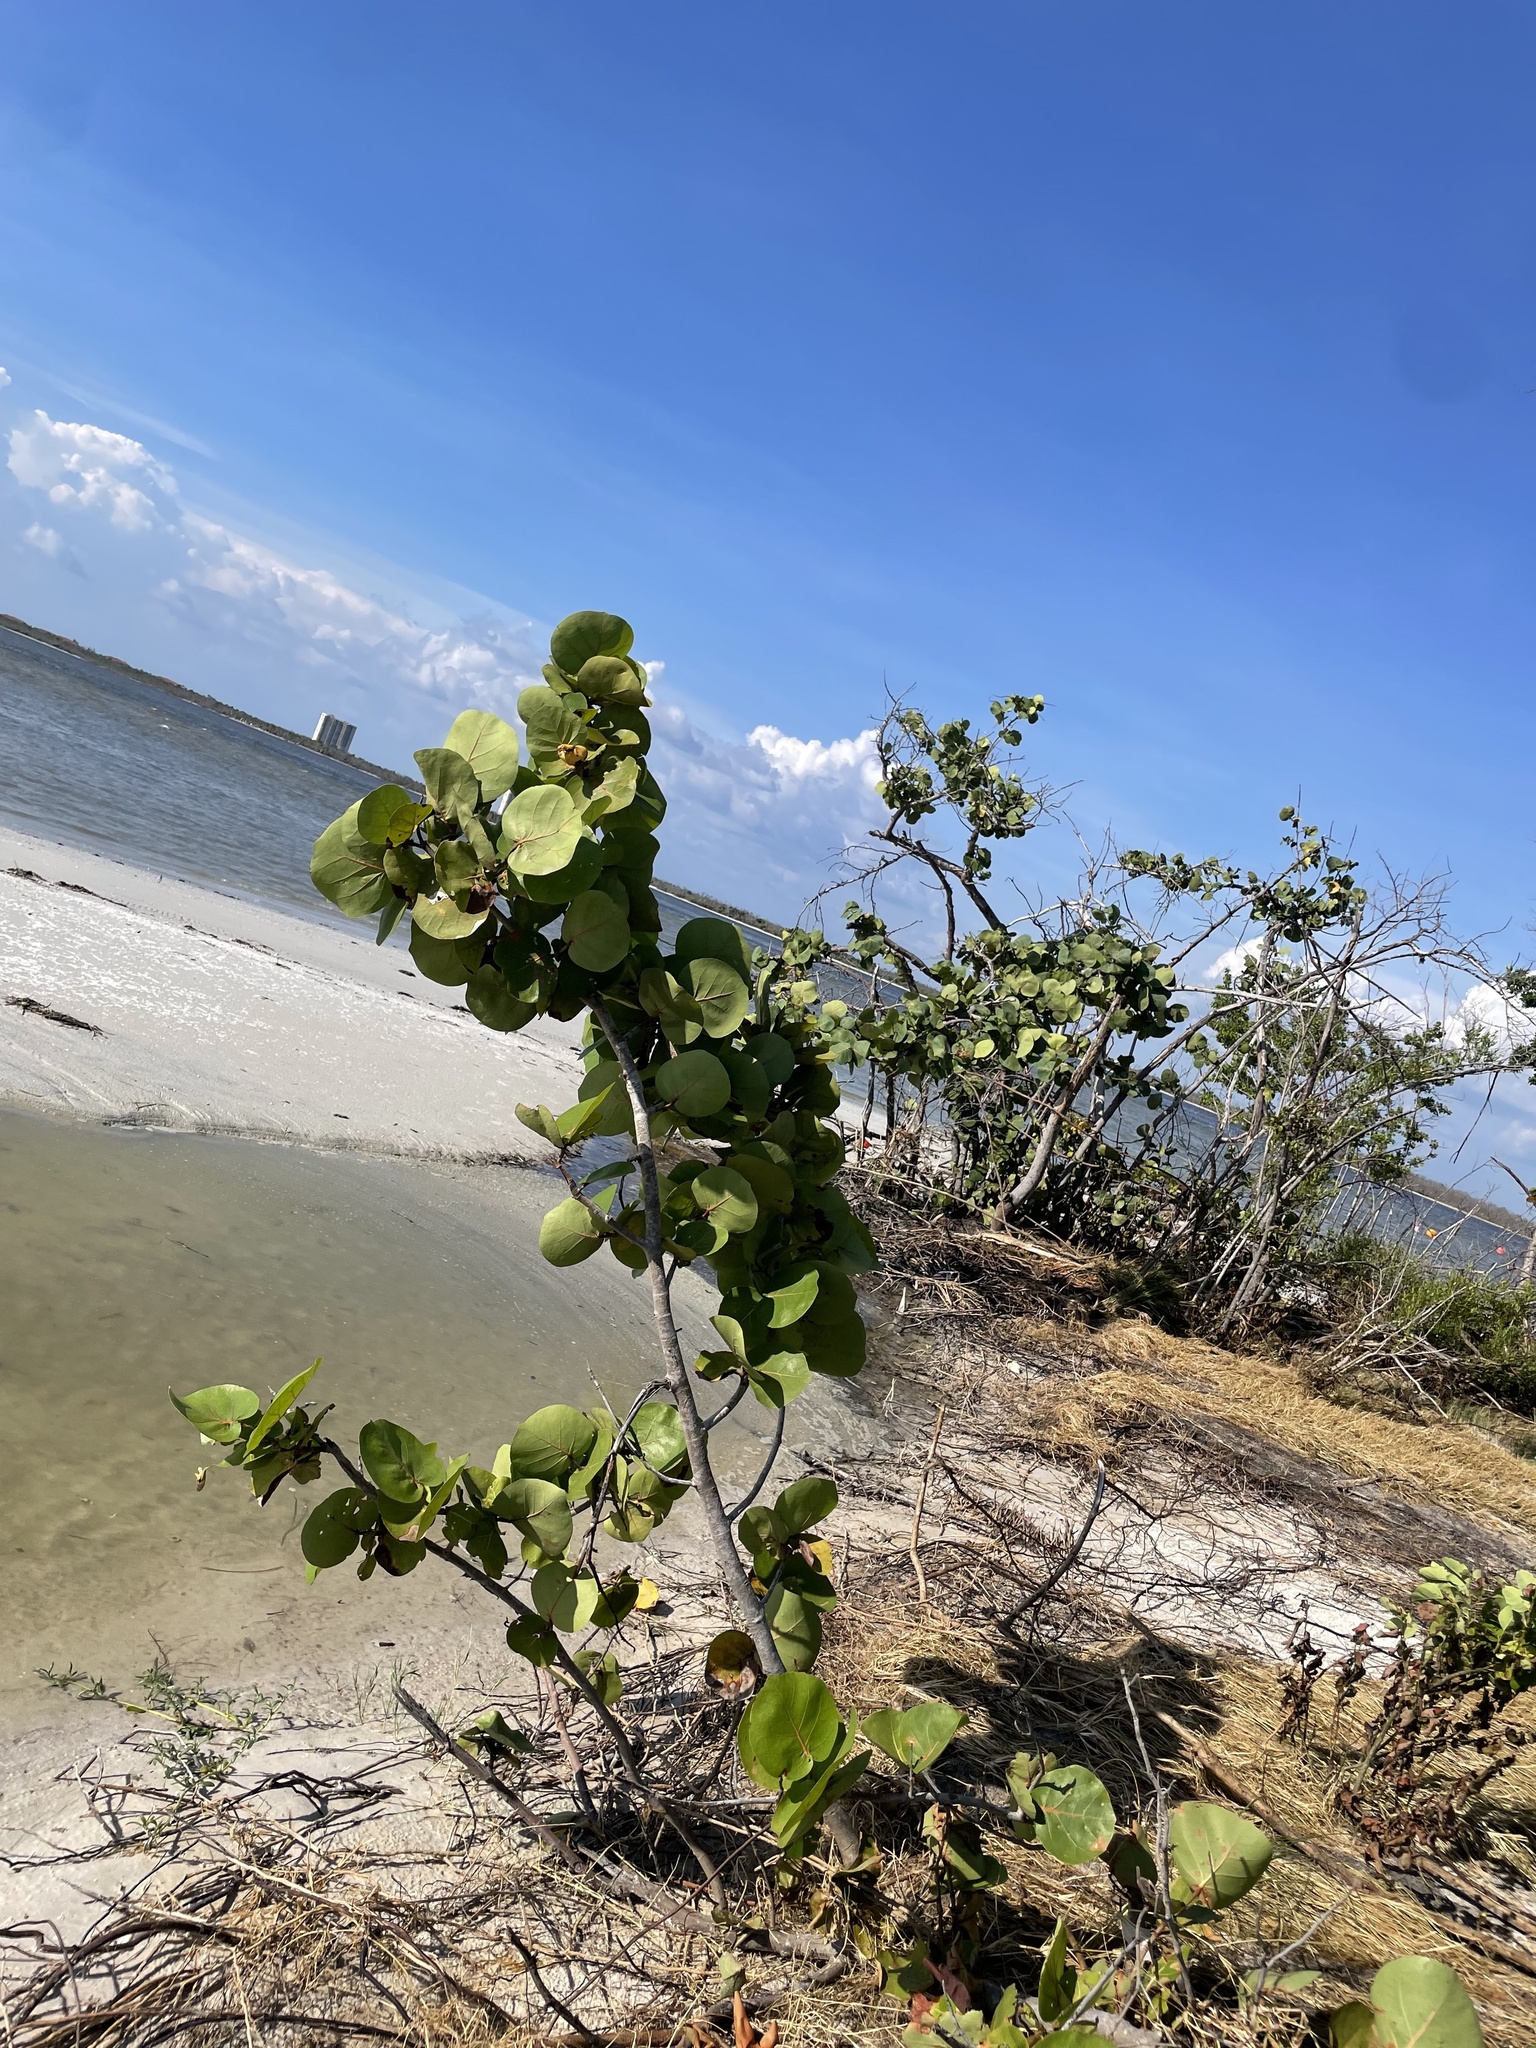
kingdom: Plantae
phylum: Tracheophyta
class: Magnoliopsida
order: Caryophyllales
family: Polygonaceae
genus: Coccoloba
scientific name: Coccoloba uvifera
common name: Seagrape
